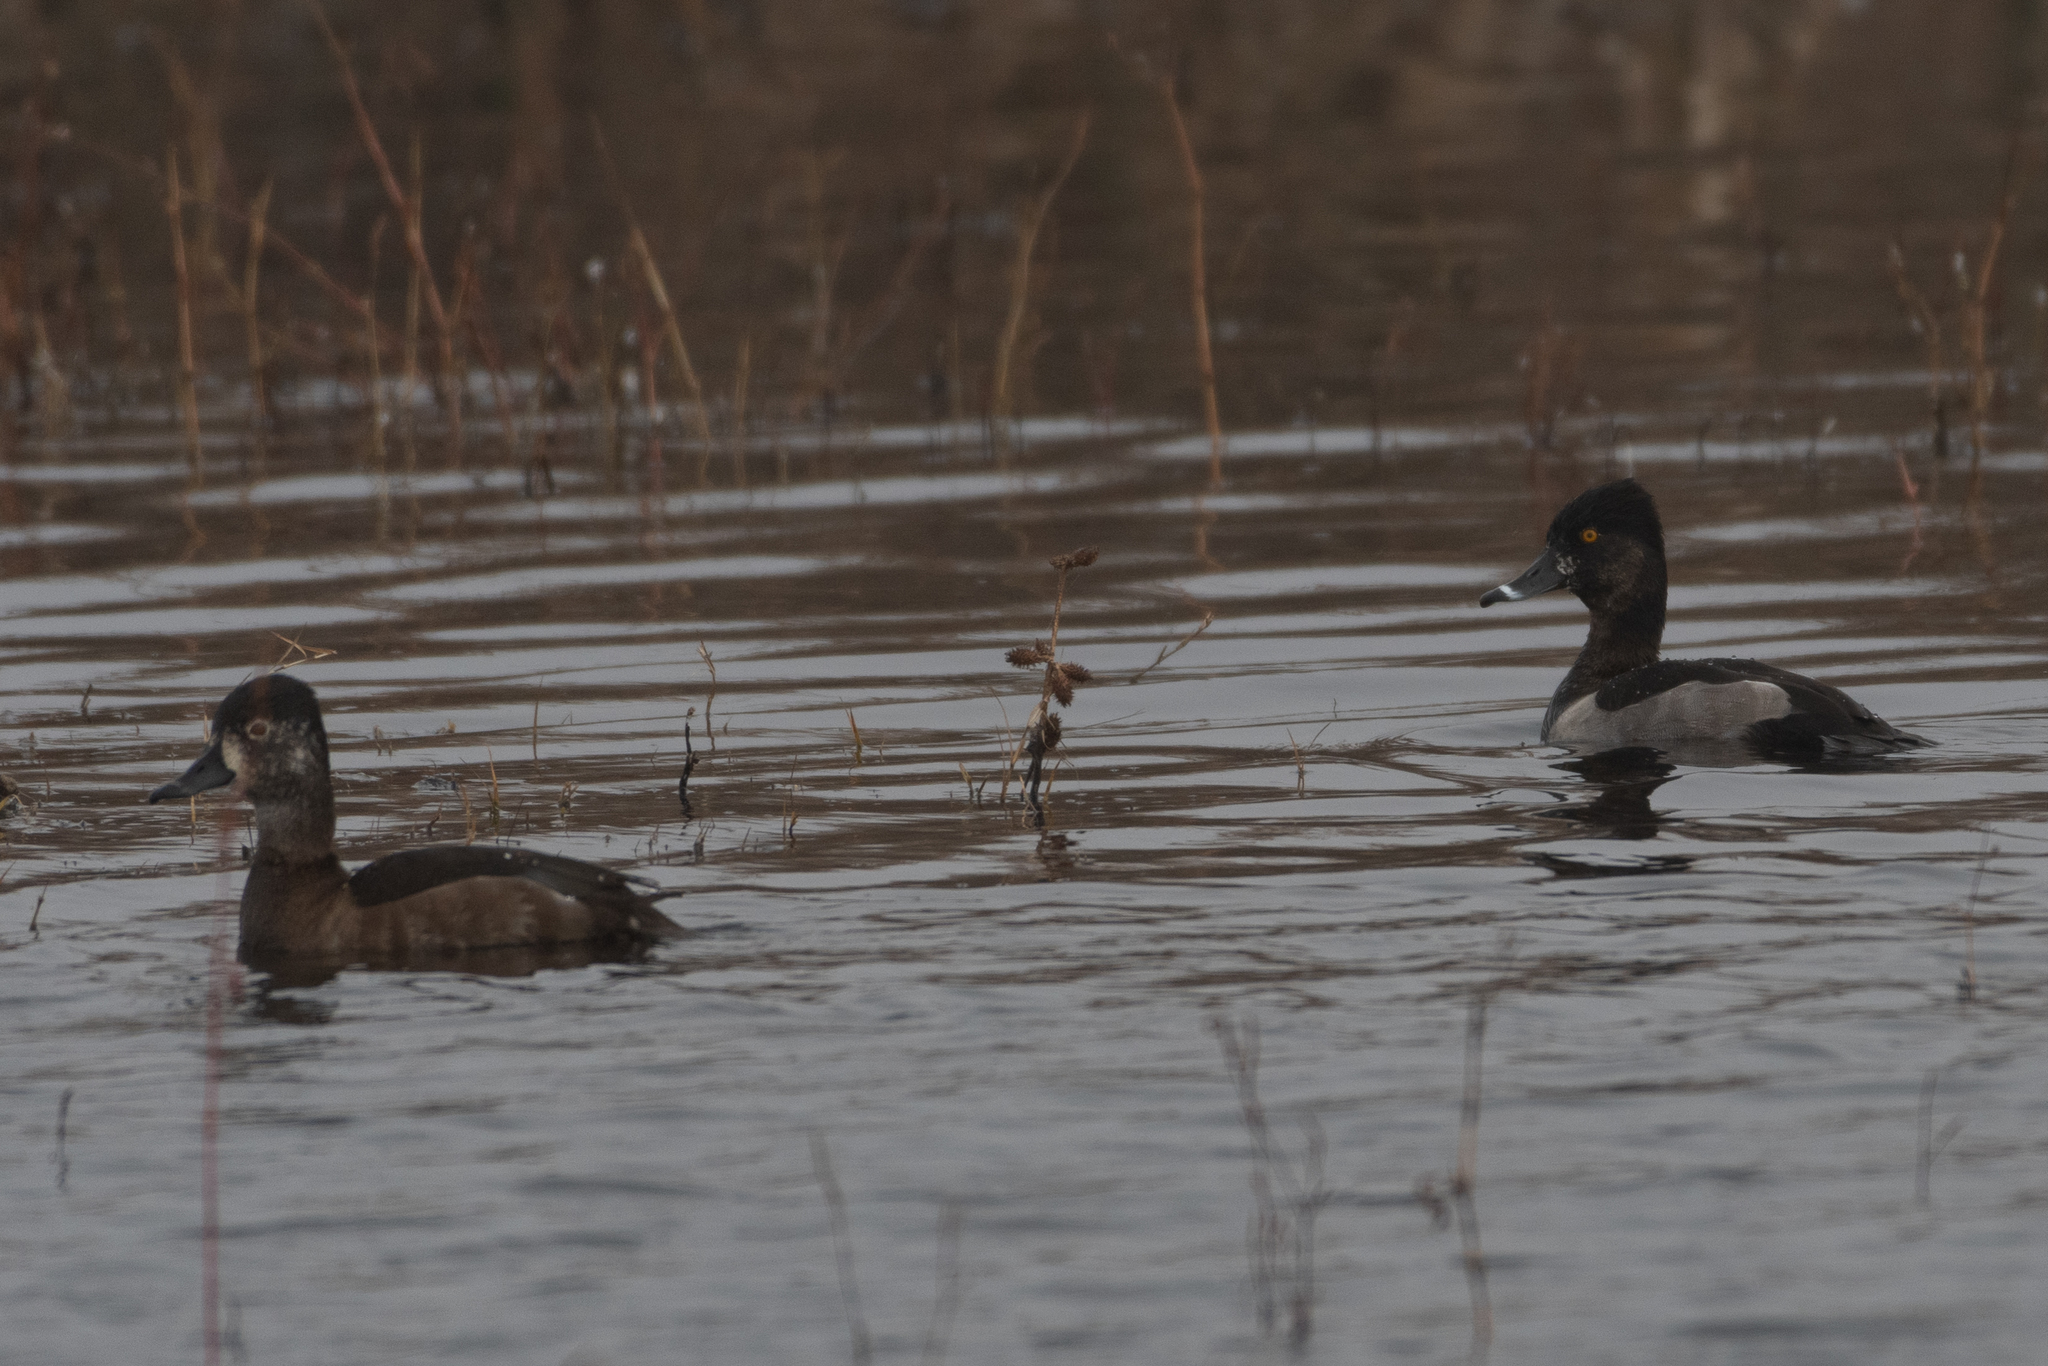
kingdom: Animalia
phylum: Chordata
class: Aves
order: Anseriformes
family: Anatidae
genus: Aythya
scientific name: Aythya collaris
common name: Ring-necked duck
